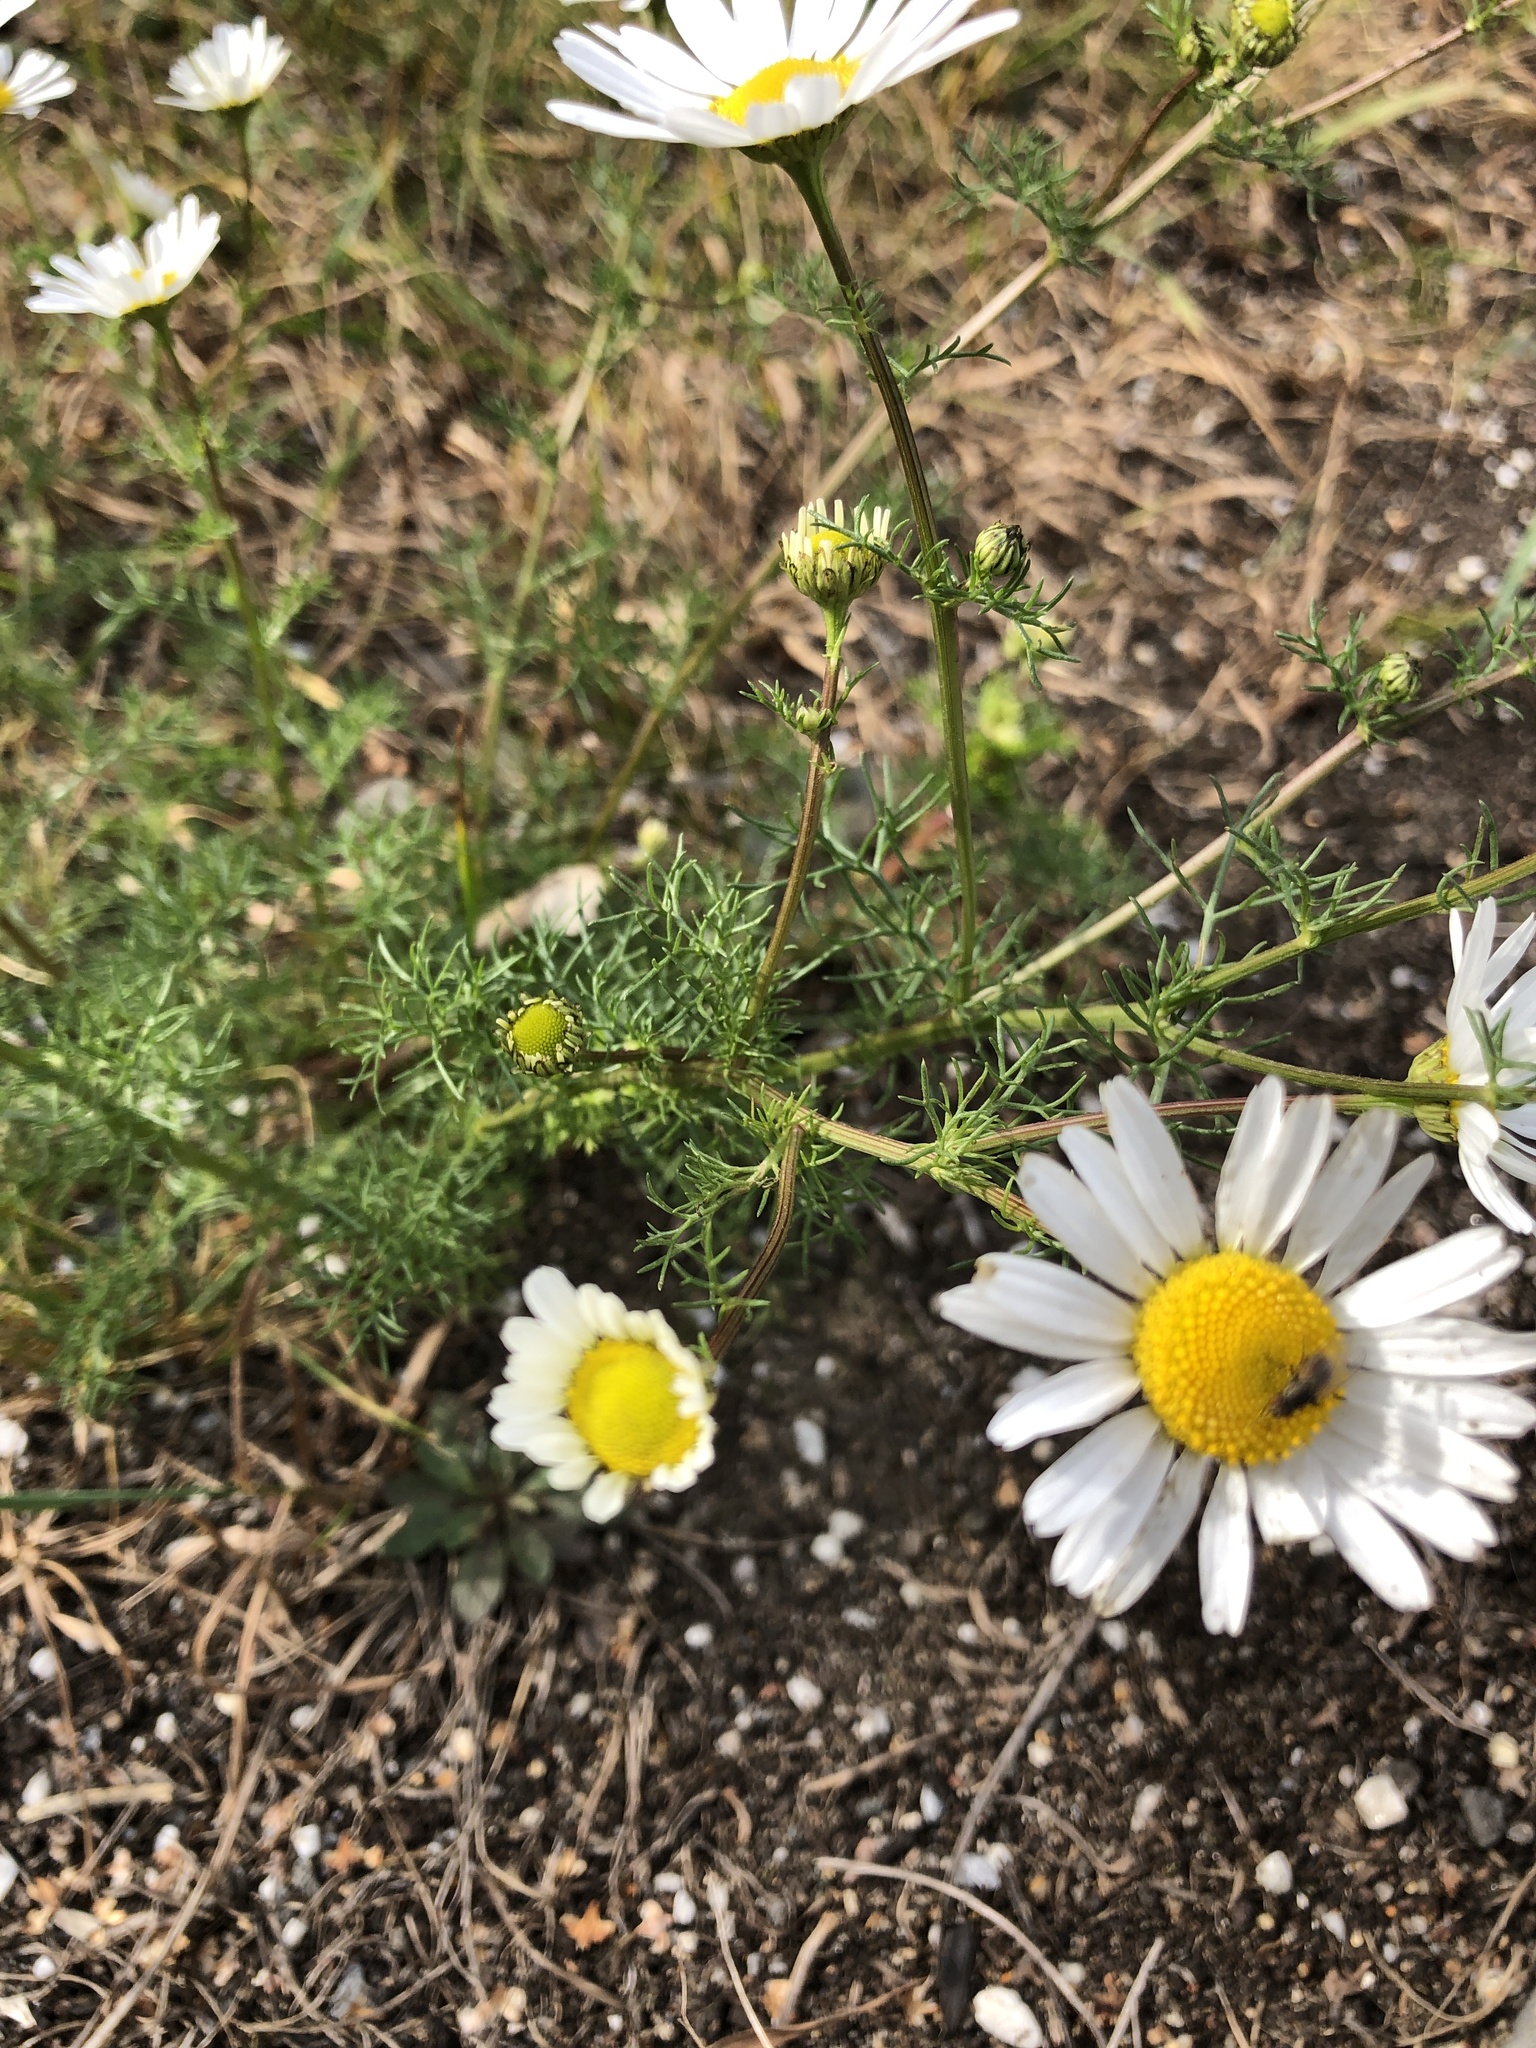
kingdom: Plantae
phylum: Tracheophyta
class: Magnoliopsida
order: Asterales
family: Asteraceae
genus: Tripleurospermum
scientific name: Tripleurospermum inodorum
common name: Scentless mayweed
